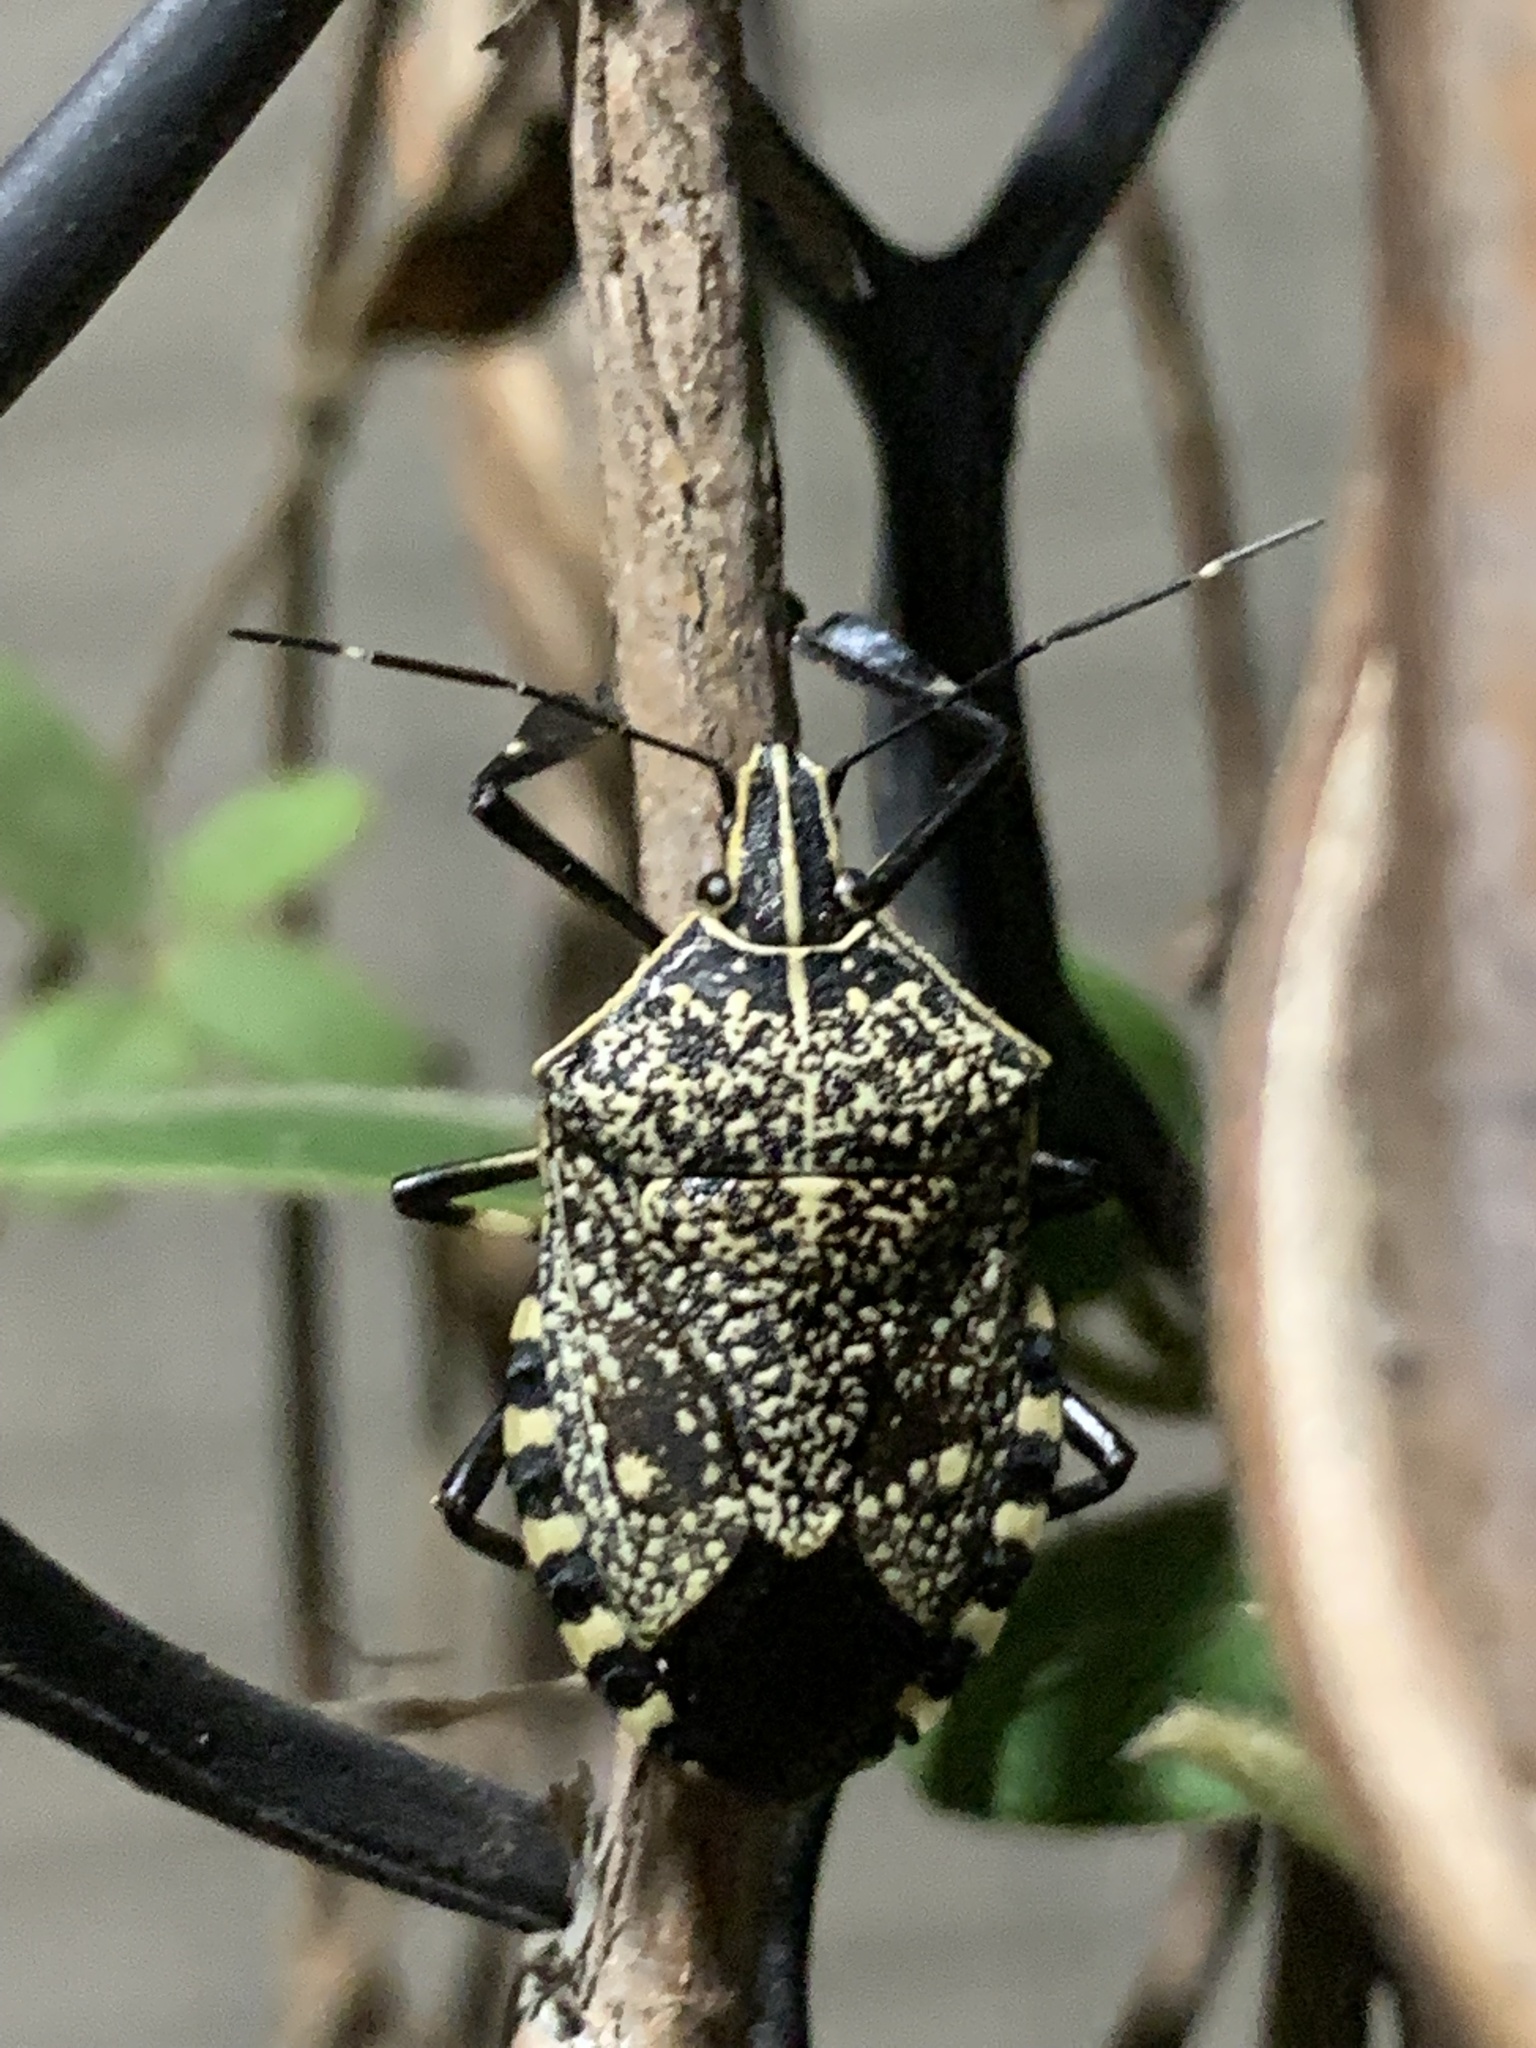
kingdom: Animalia
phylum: Arthropoda
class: Insecta
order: Hemiptera
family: Pentatomidae
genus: Erthesina
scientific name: Erthesina fullo
